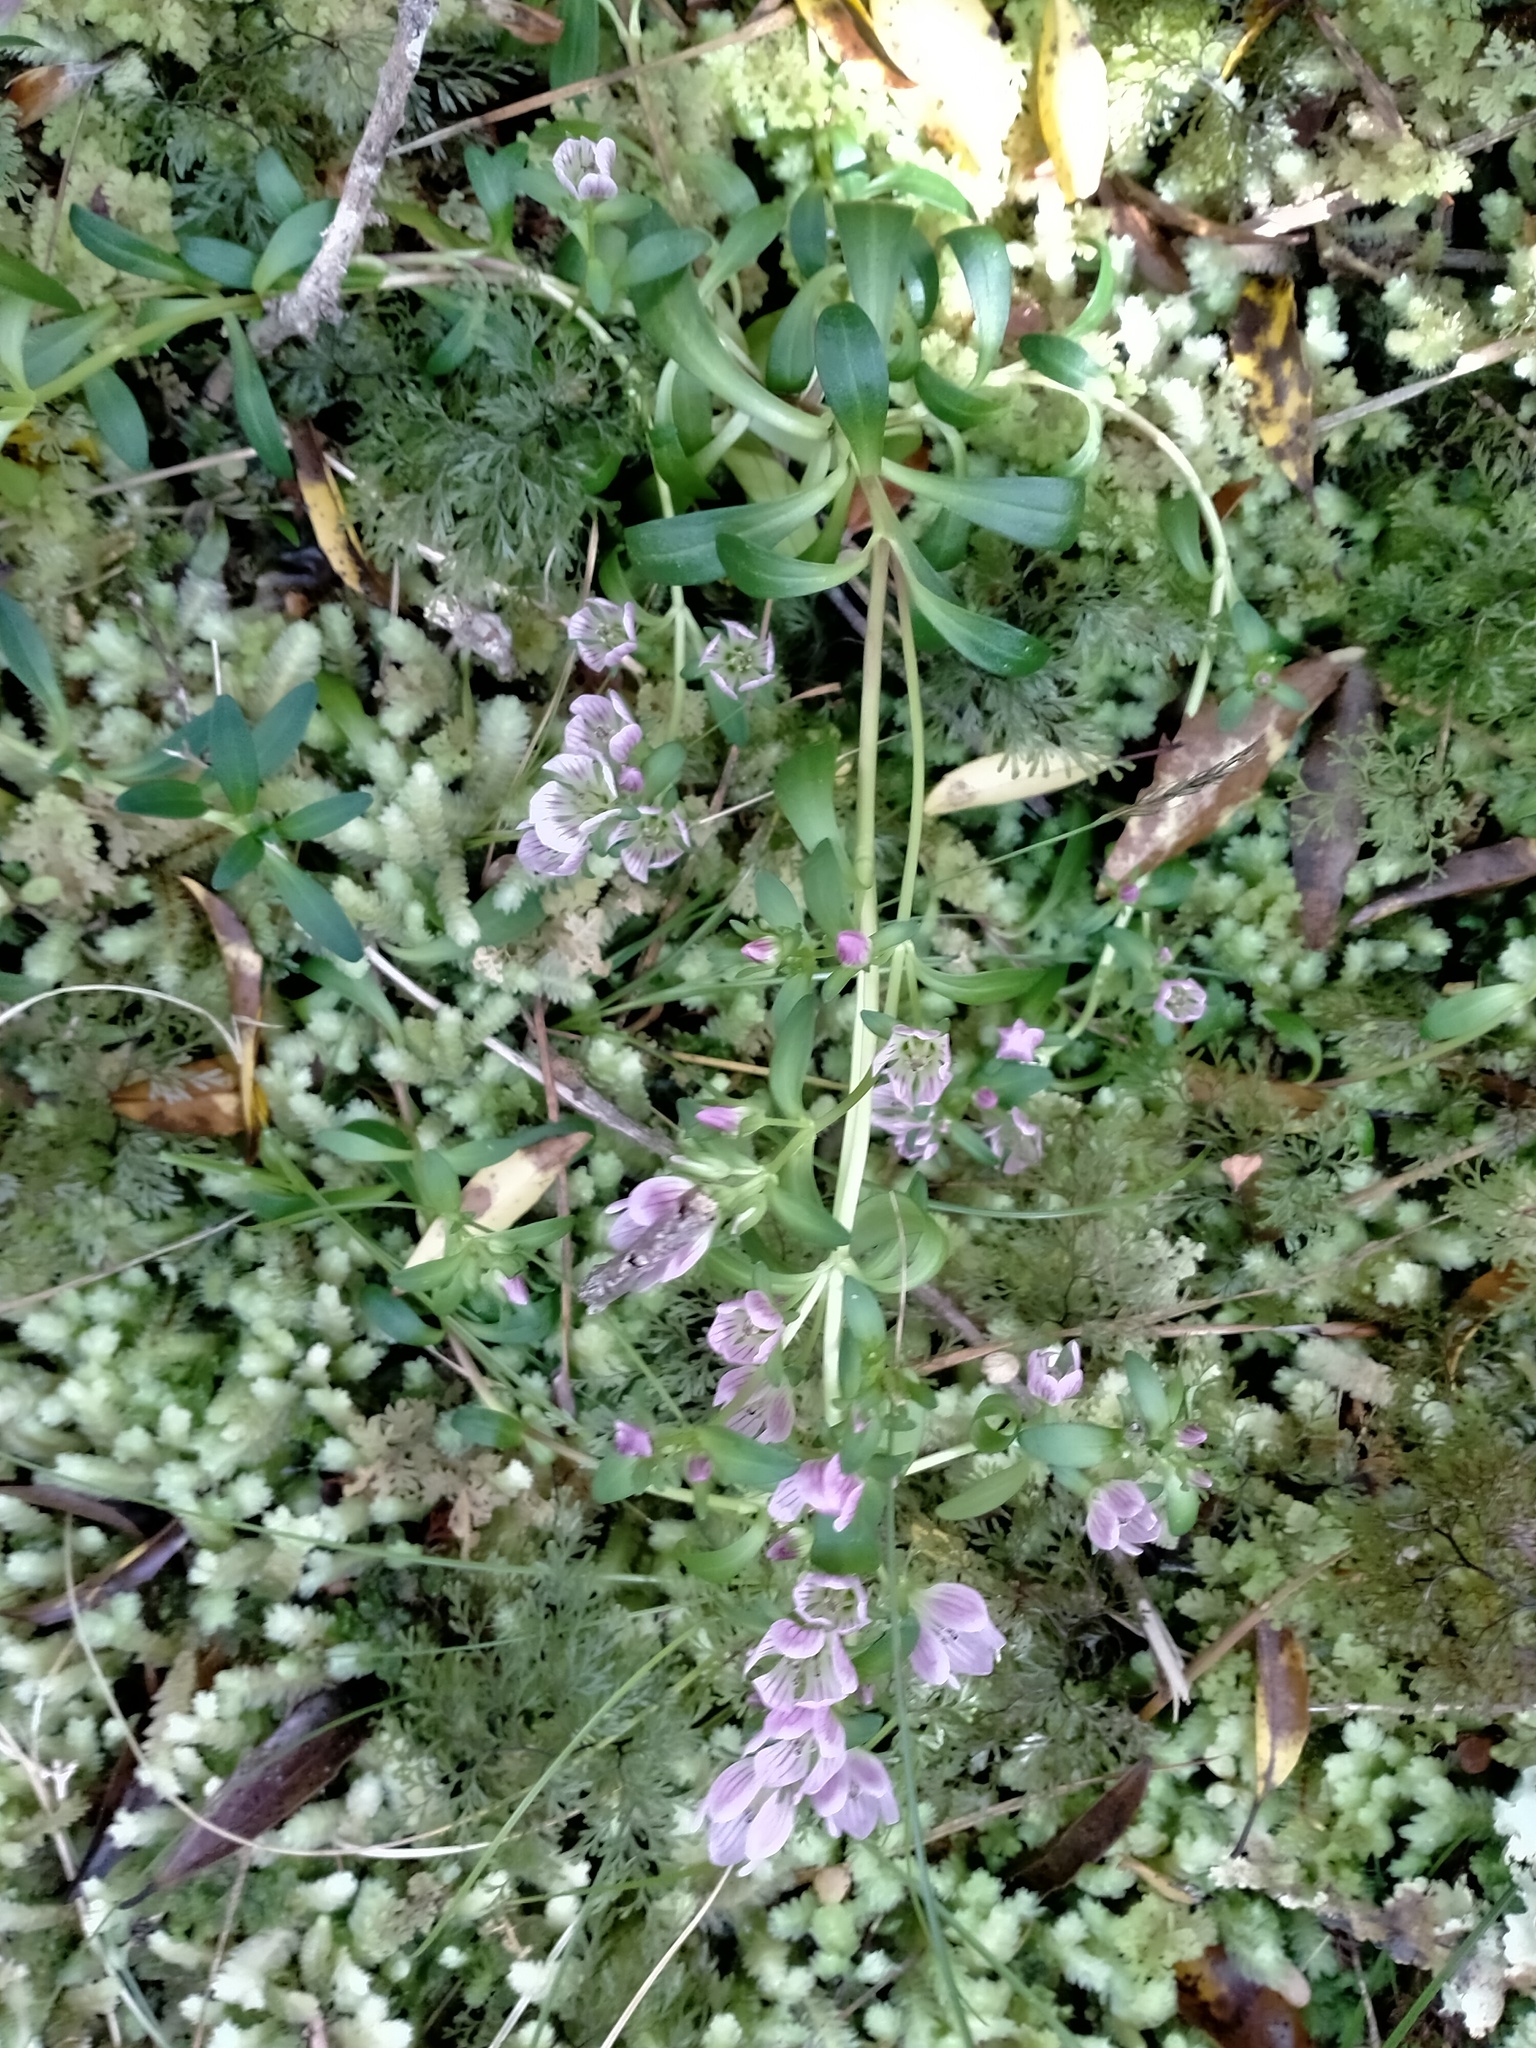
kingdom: Plantae
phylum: Tracheophyta
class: Magnoliopsida
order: Gentianales
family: Gentianaceae
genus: Gentianella
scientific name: Gentianella concinna
